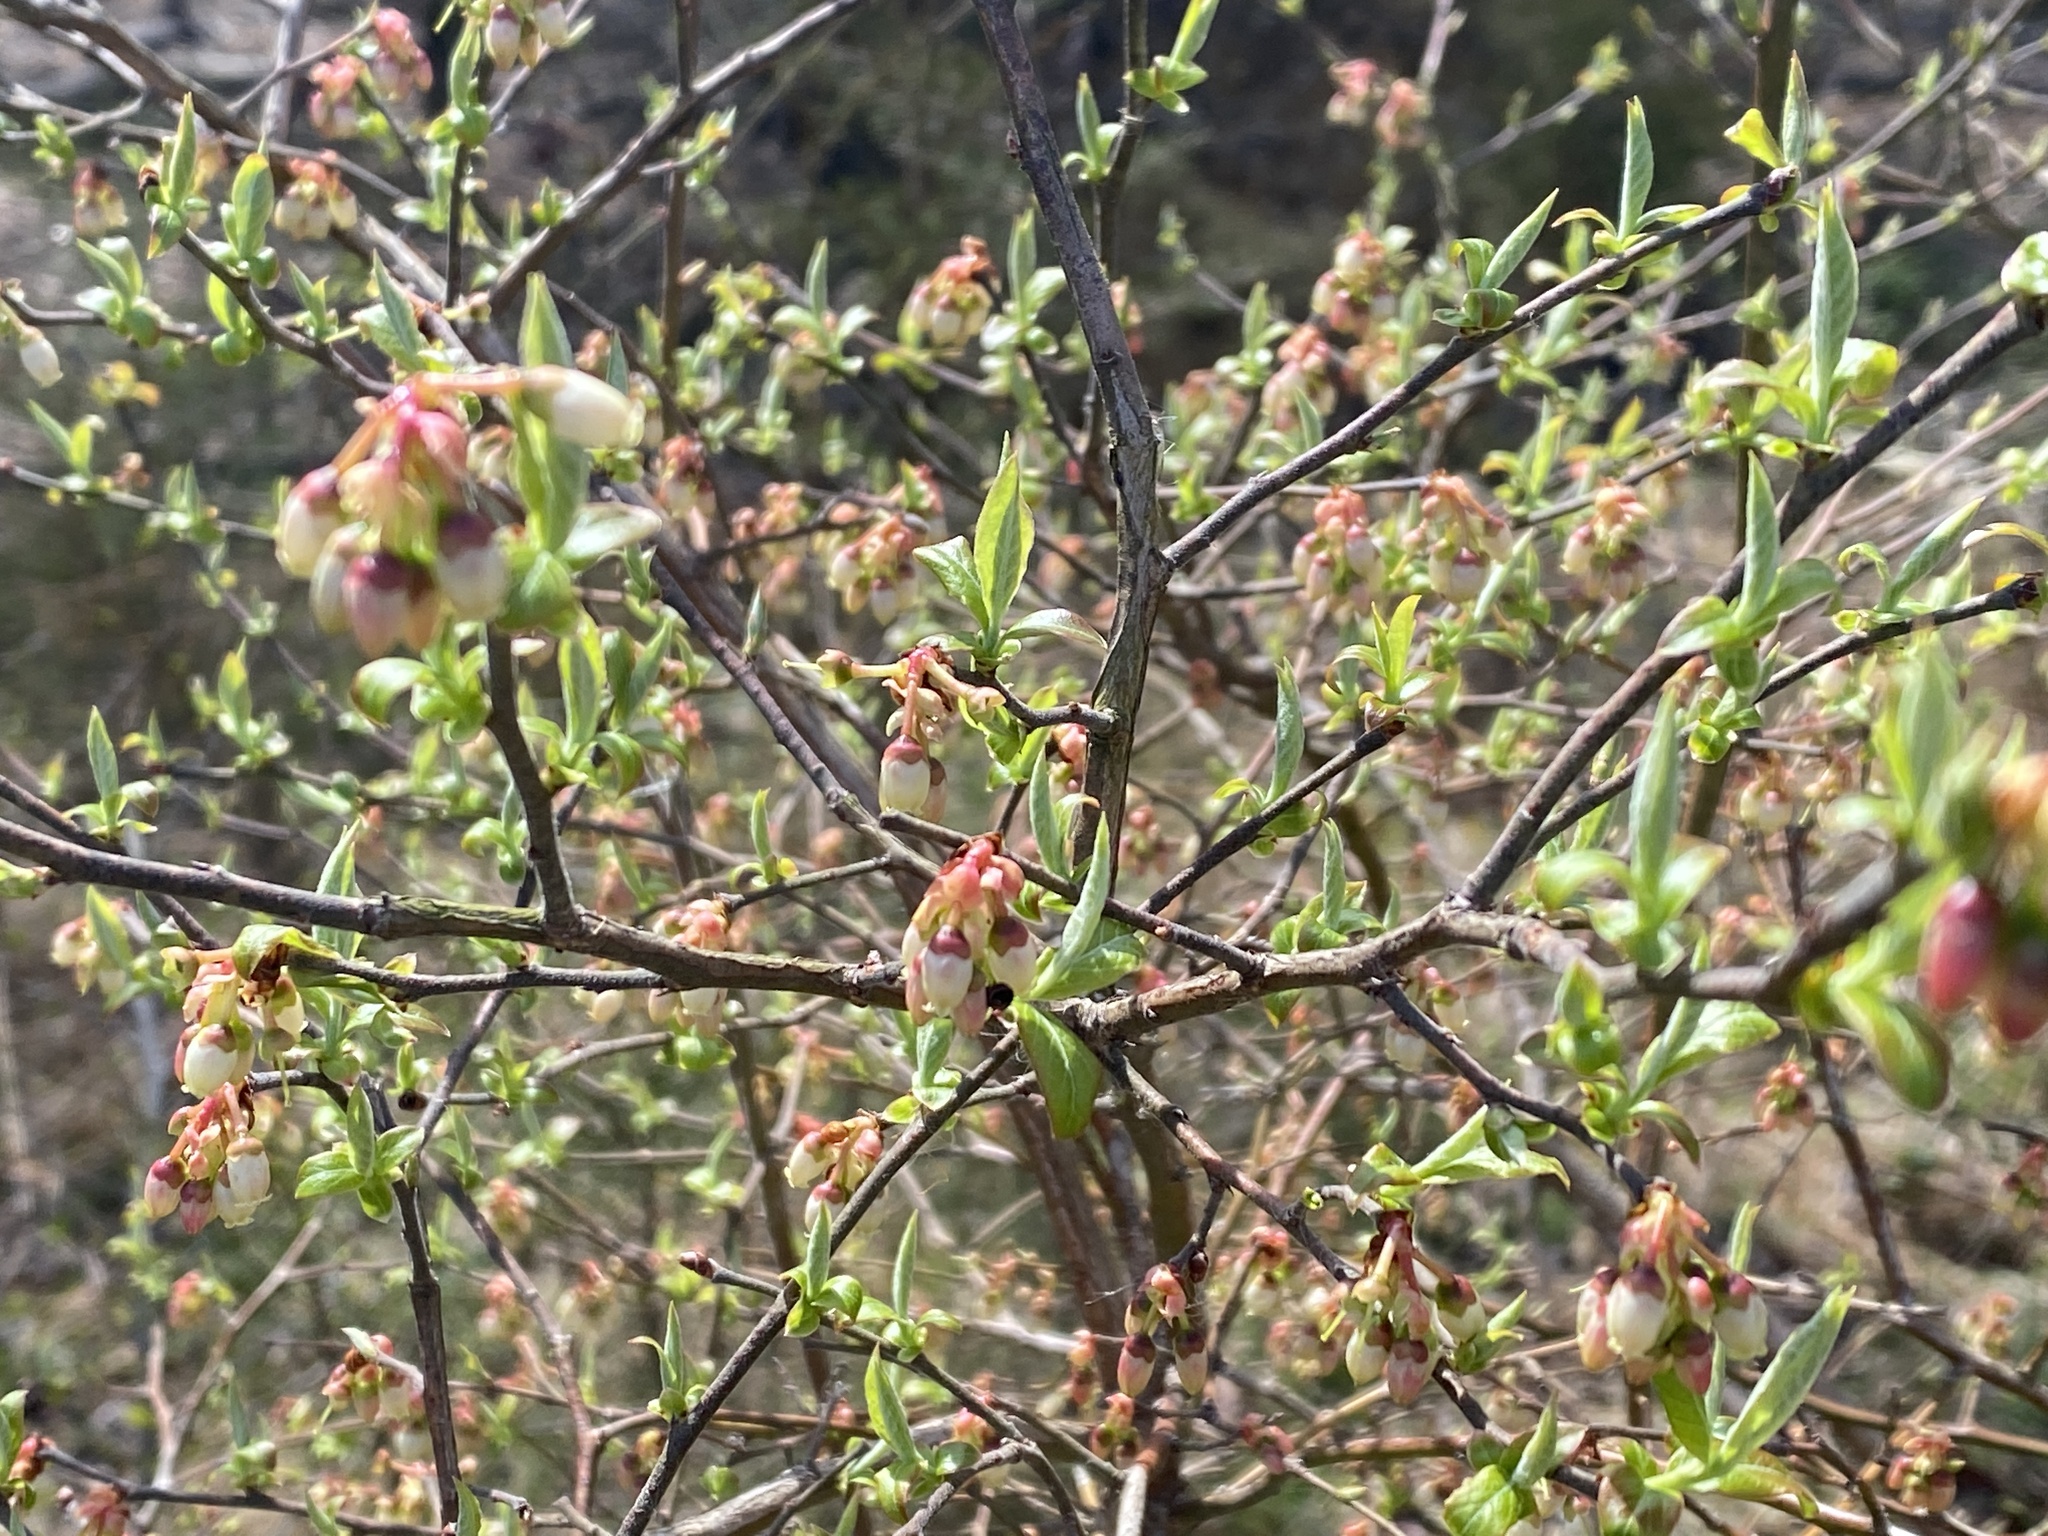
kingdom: Plantae
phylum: Tracheophyta
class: Magnoliopsida
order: Ericales
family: Ericaceae
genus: Vaccinium
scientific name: Vaccinium corymbosum
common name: Blueberry
